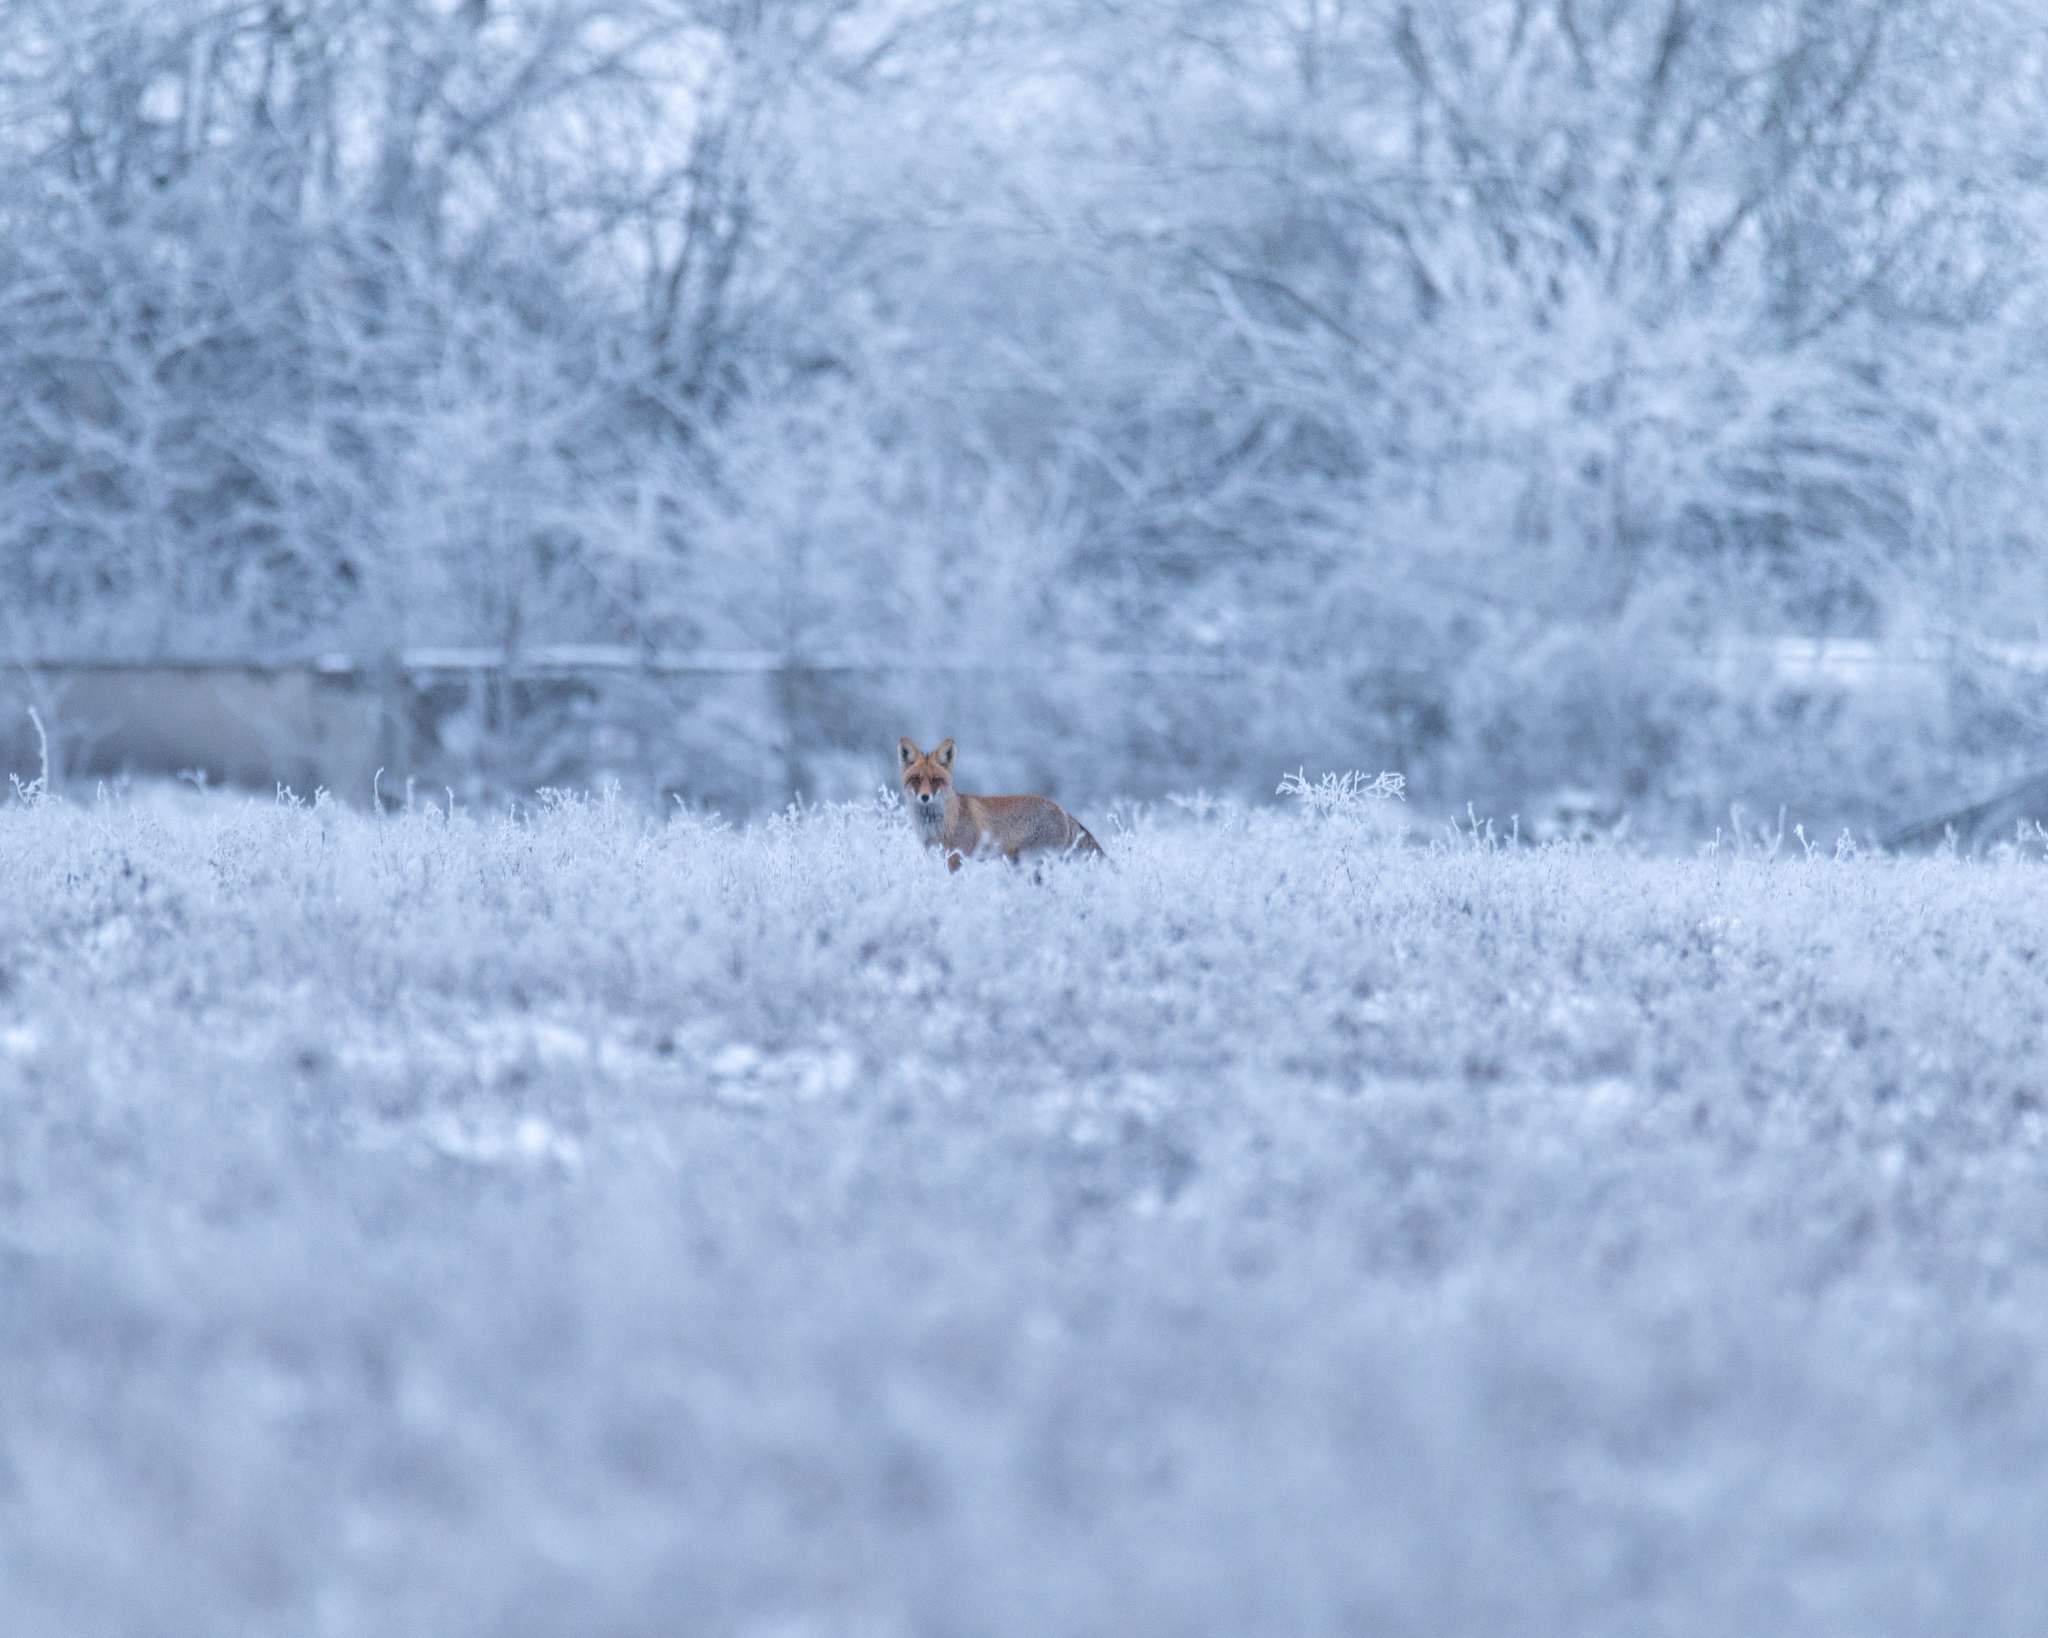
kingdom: Animalia
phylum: Chordata
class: Mammalia
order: Carnivora
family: Canidae
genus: Vulpes
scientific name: Vulpes vulpes
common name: Red fox
